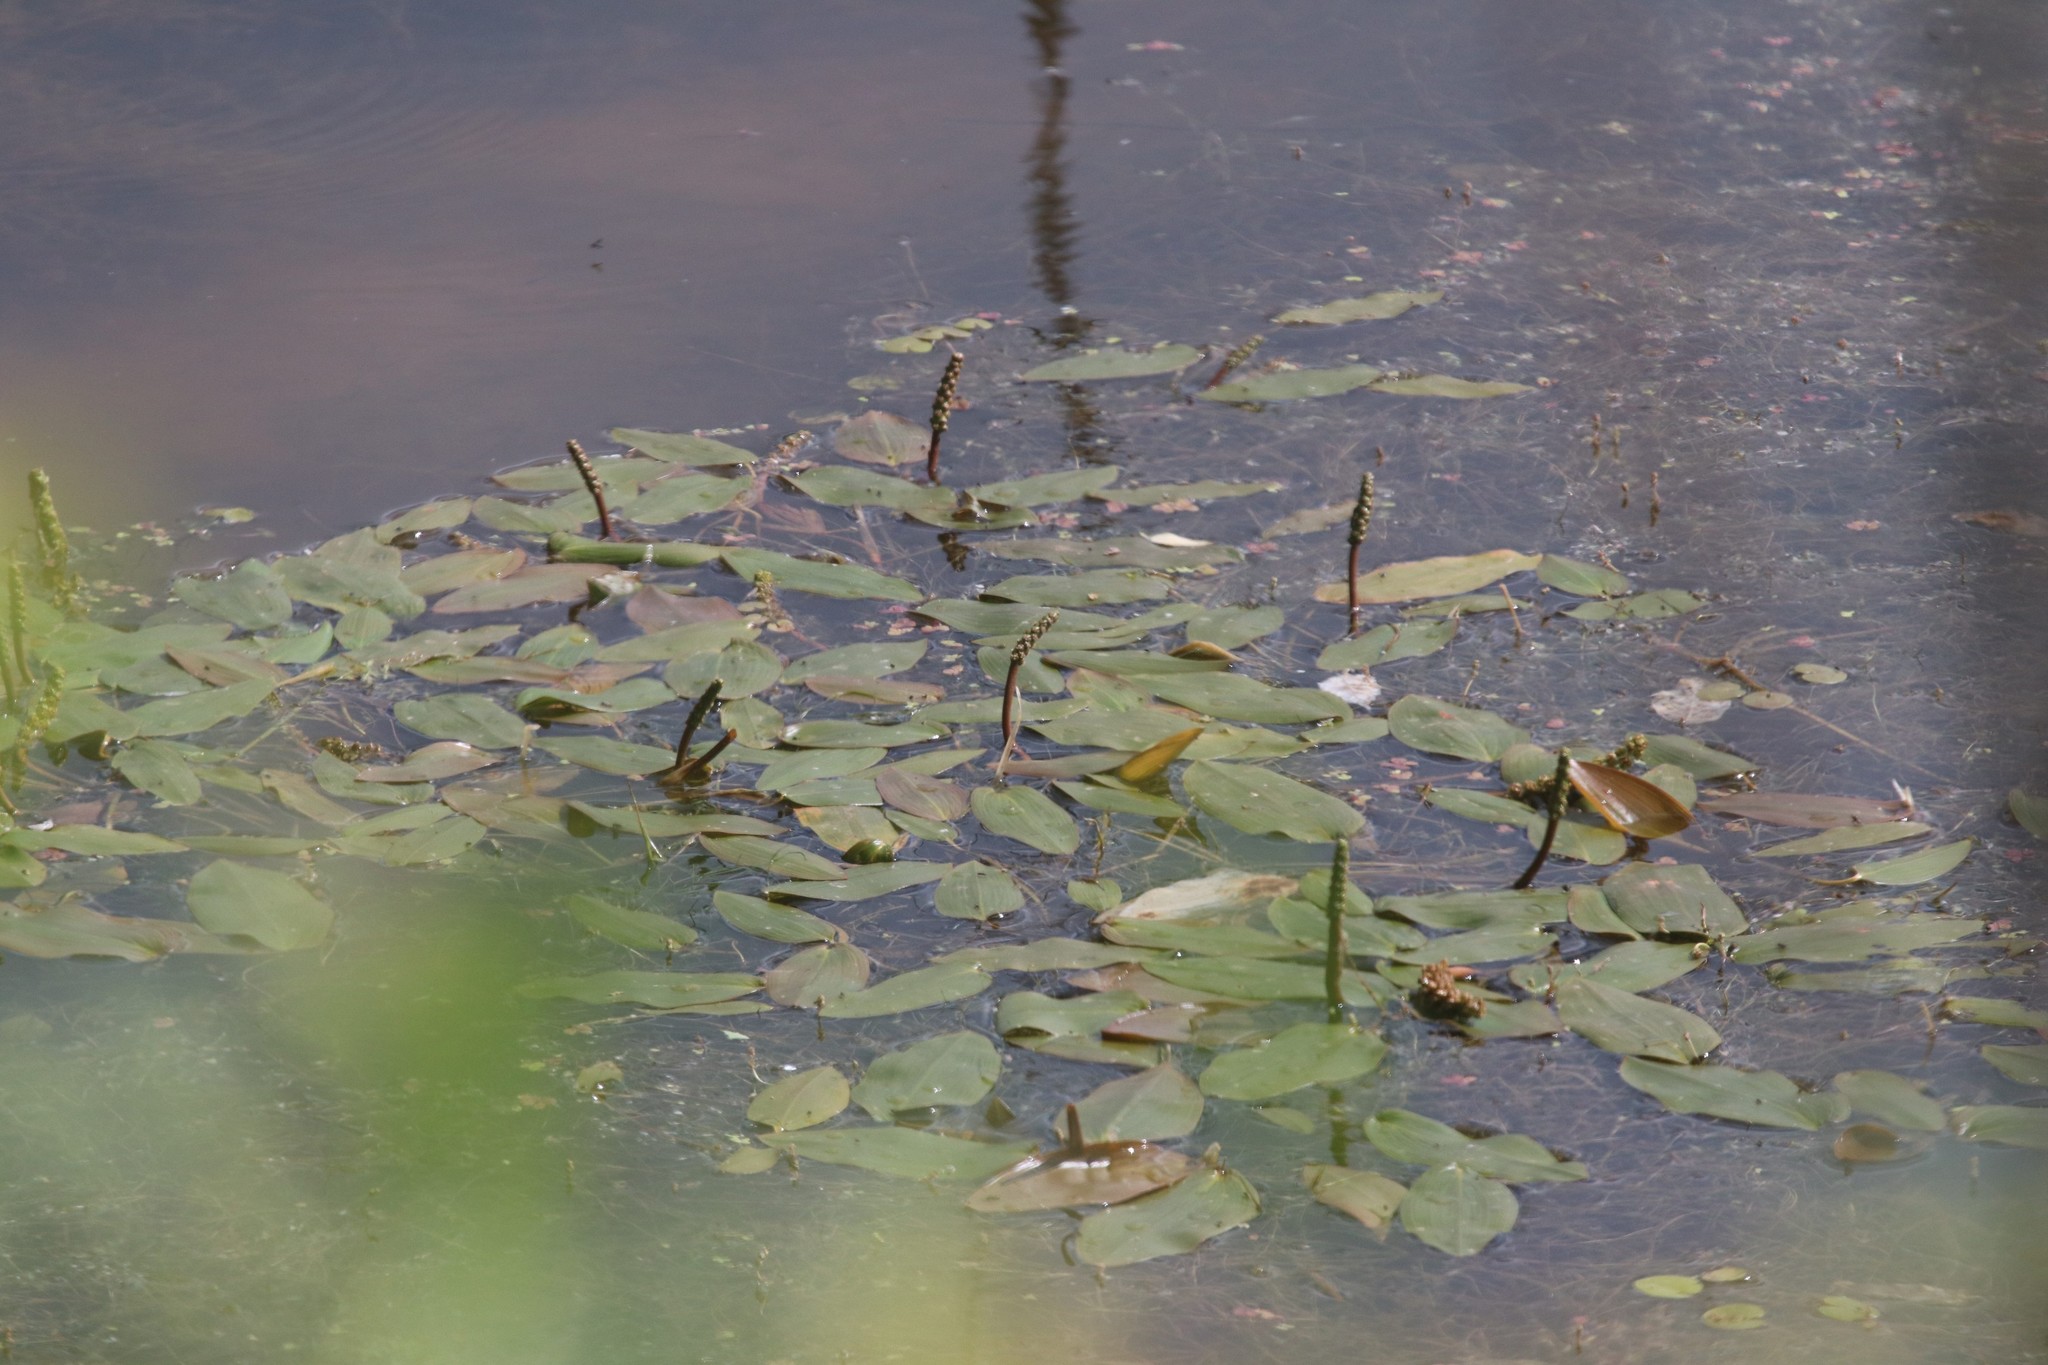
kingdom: Plantae
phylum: Tracheophyta
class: Liliopsida
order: Alismatales
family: Potamogetonaceae
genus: Potamogeton
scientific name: Potamogeton natans
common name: Broad-leaved pondweed
